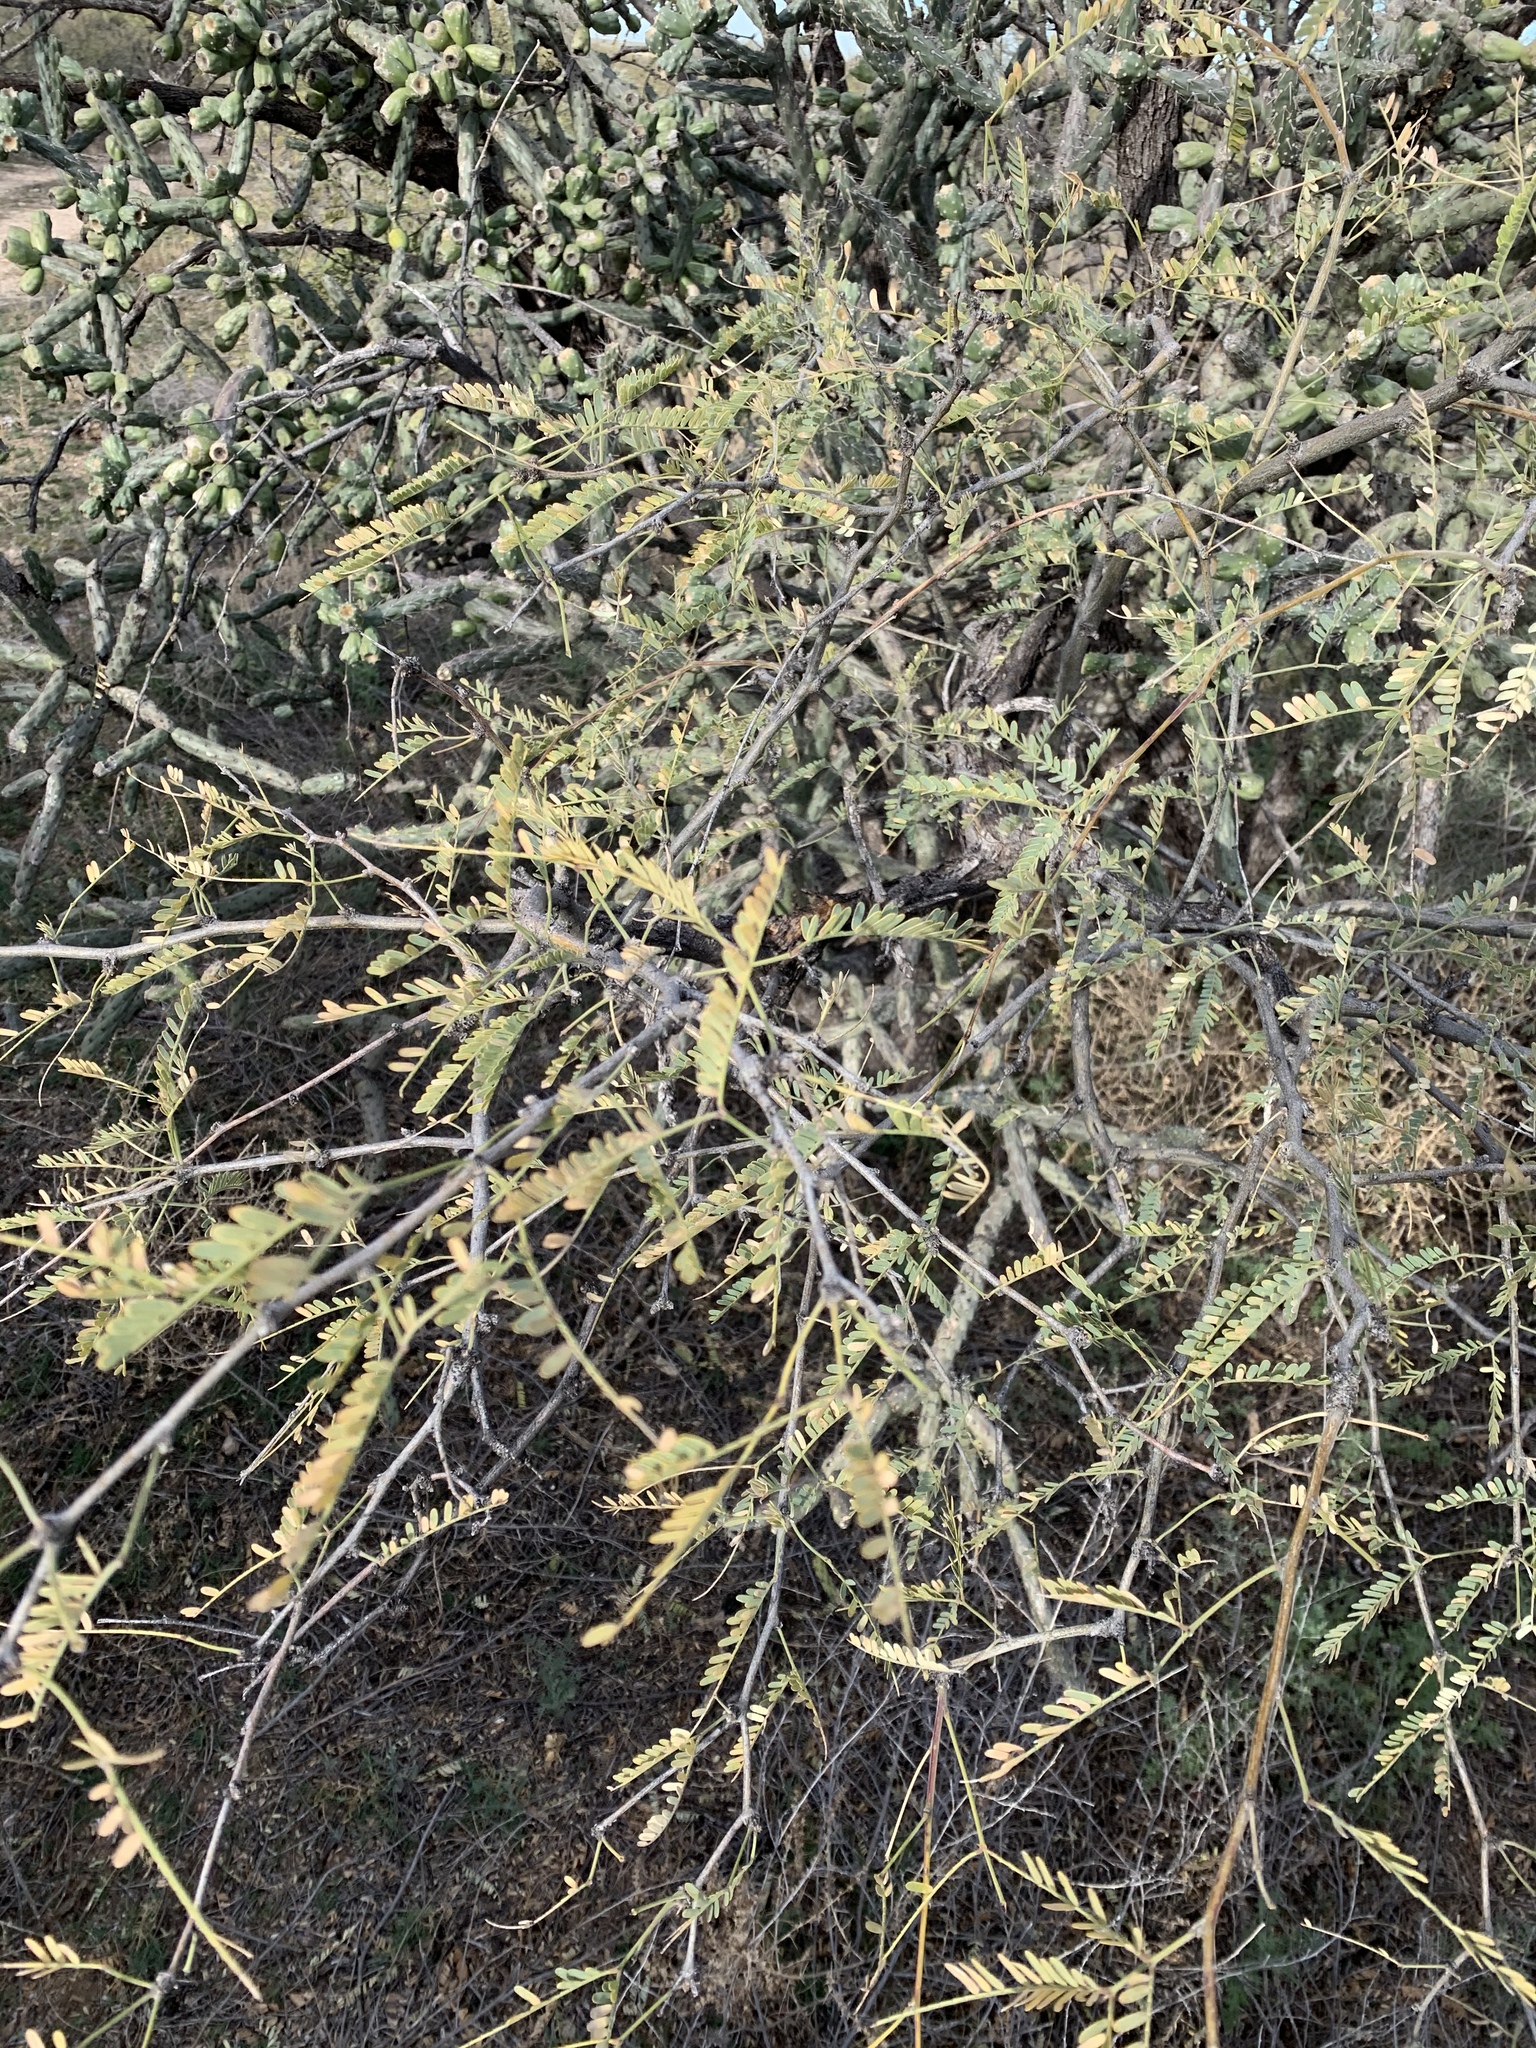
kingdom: Plantae
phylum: Tracheophyta
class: Magnoliopsida
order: Fabales
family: Fabaceae
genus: Prosopis
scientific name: Prosopis velutina
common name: Velvet mesquite
